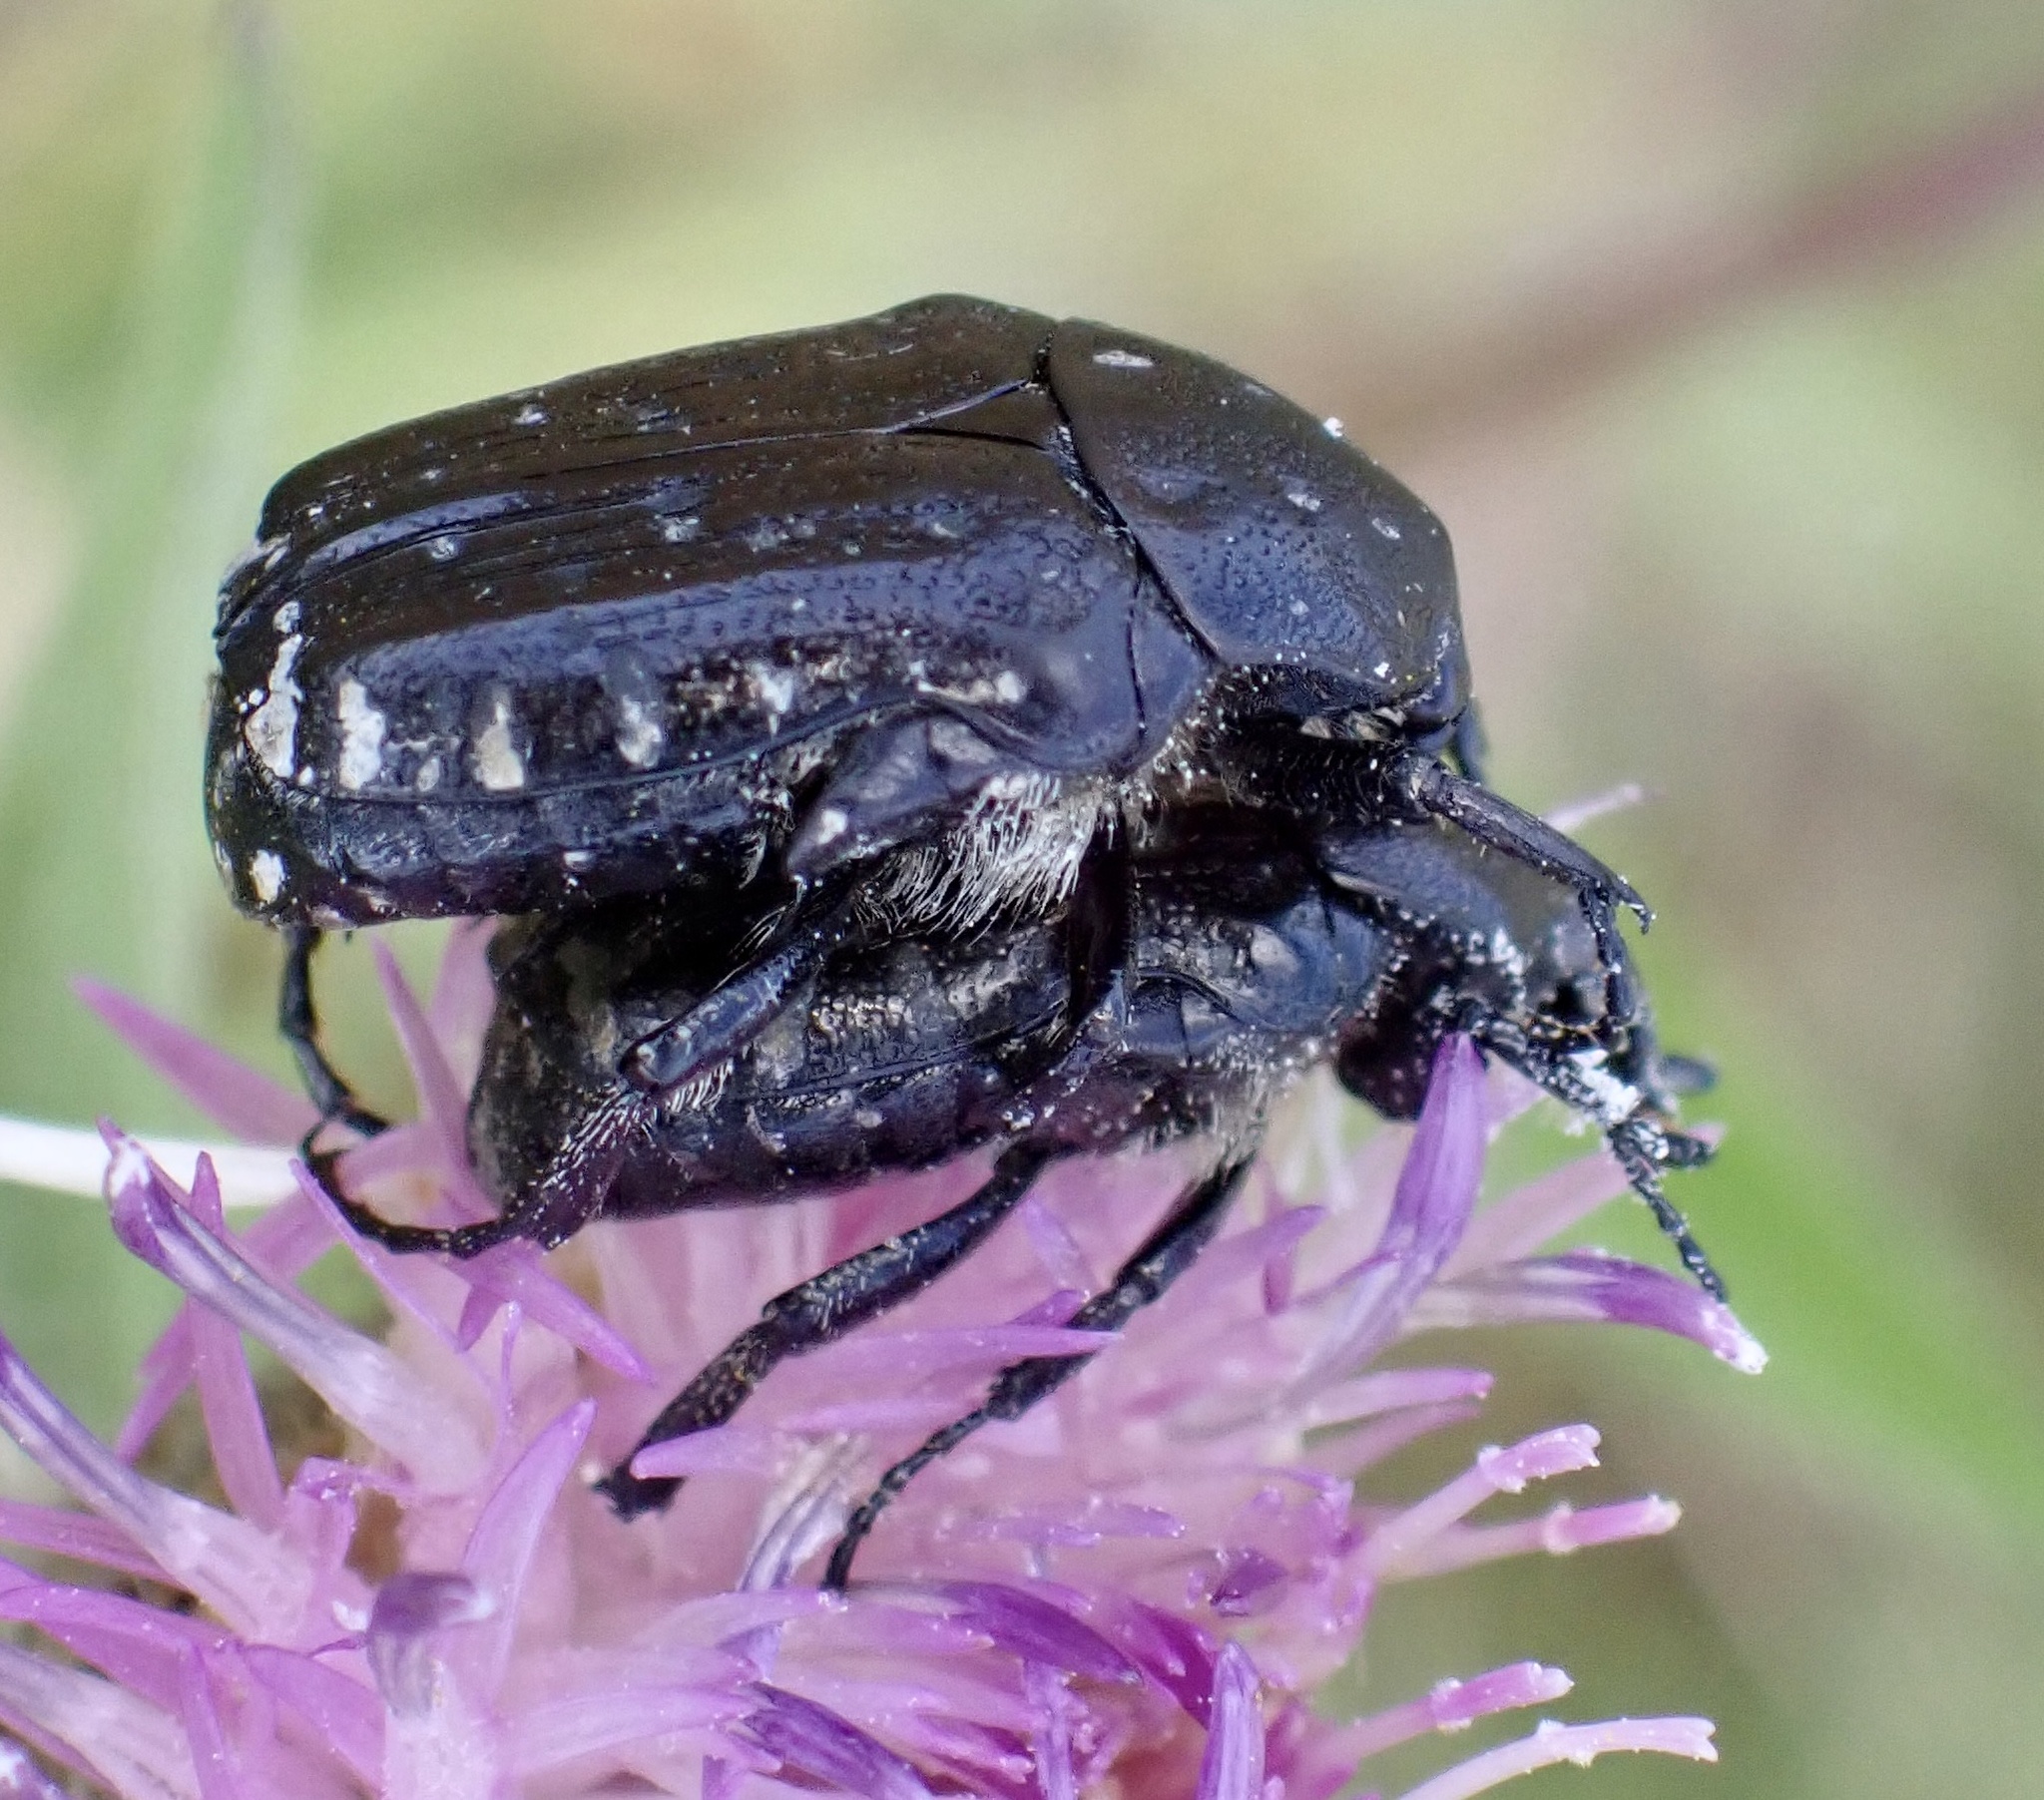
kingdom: Animalia
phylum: Arthropoda
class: Insecta
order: Coleoptera
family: Scarabaeidae
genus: Oxythyrea
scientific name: Oxythyrea funesta
